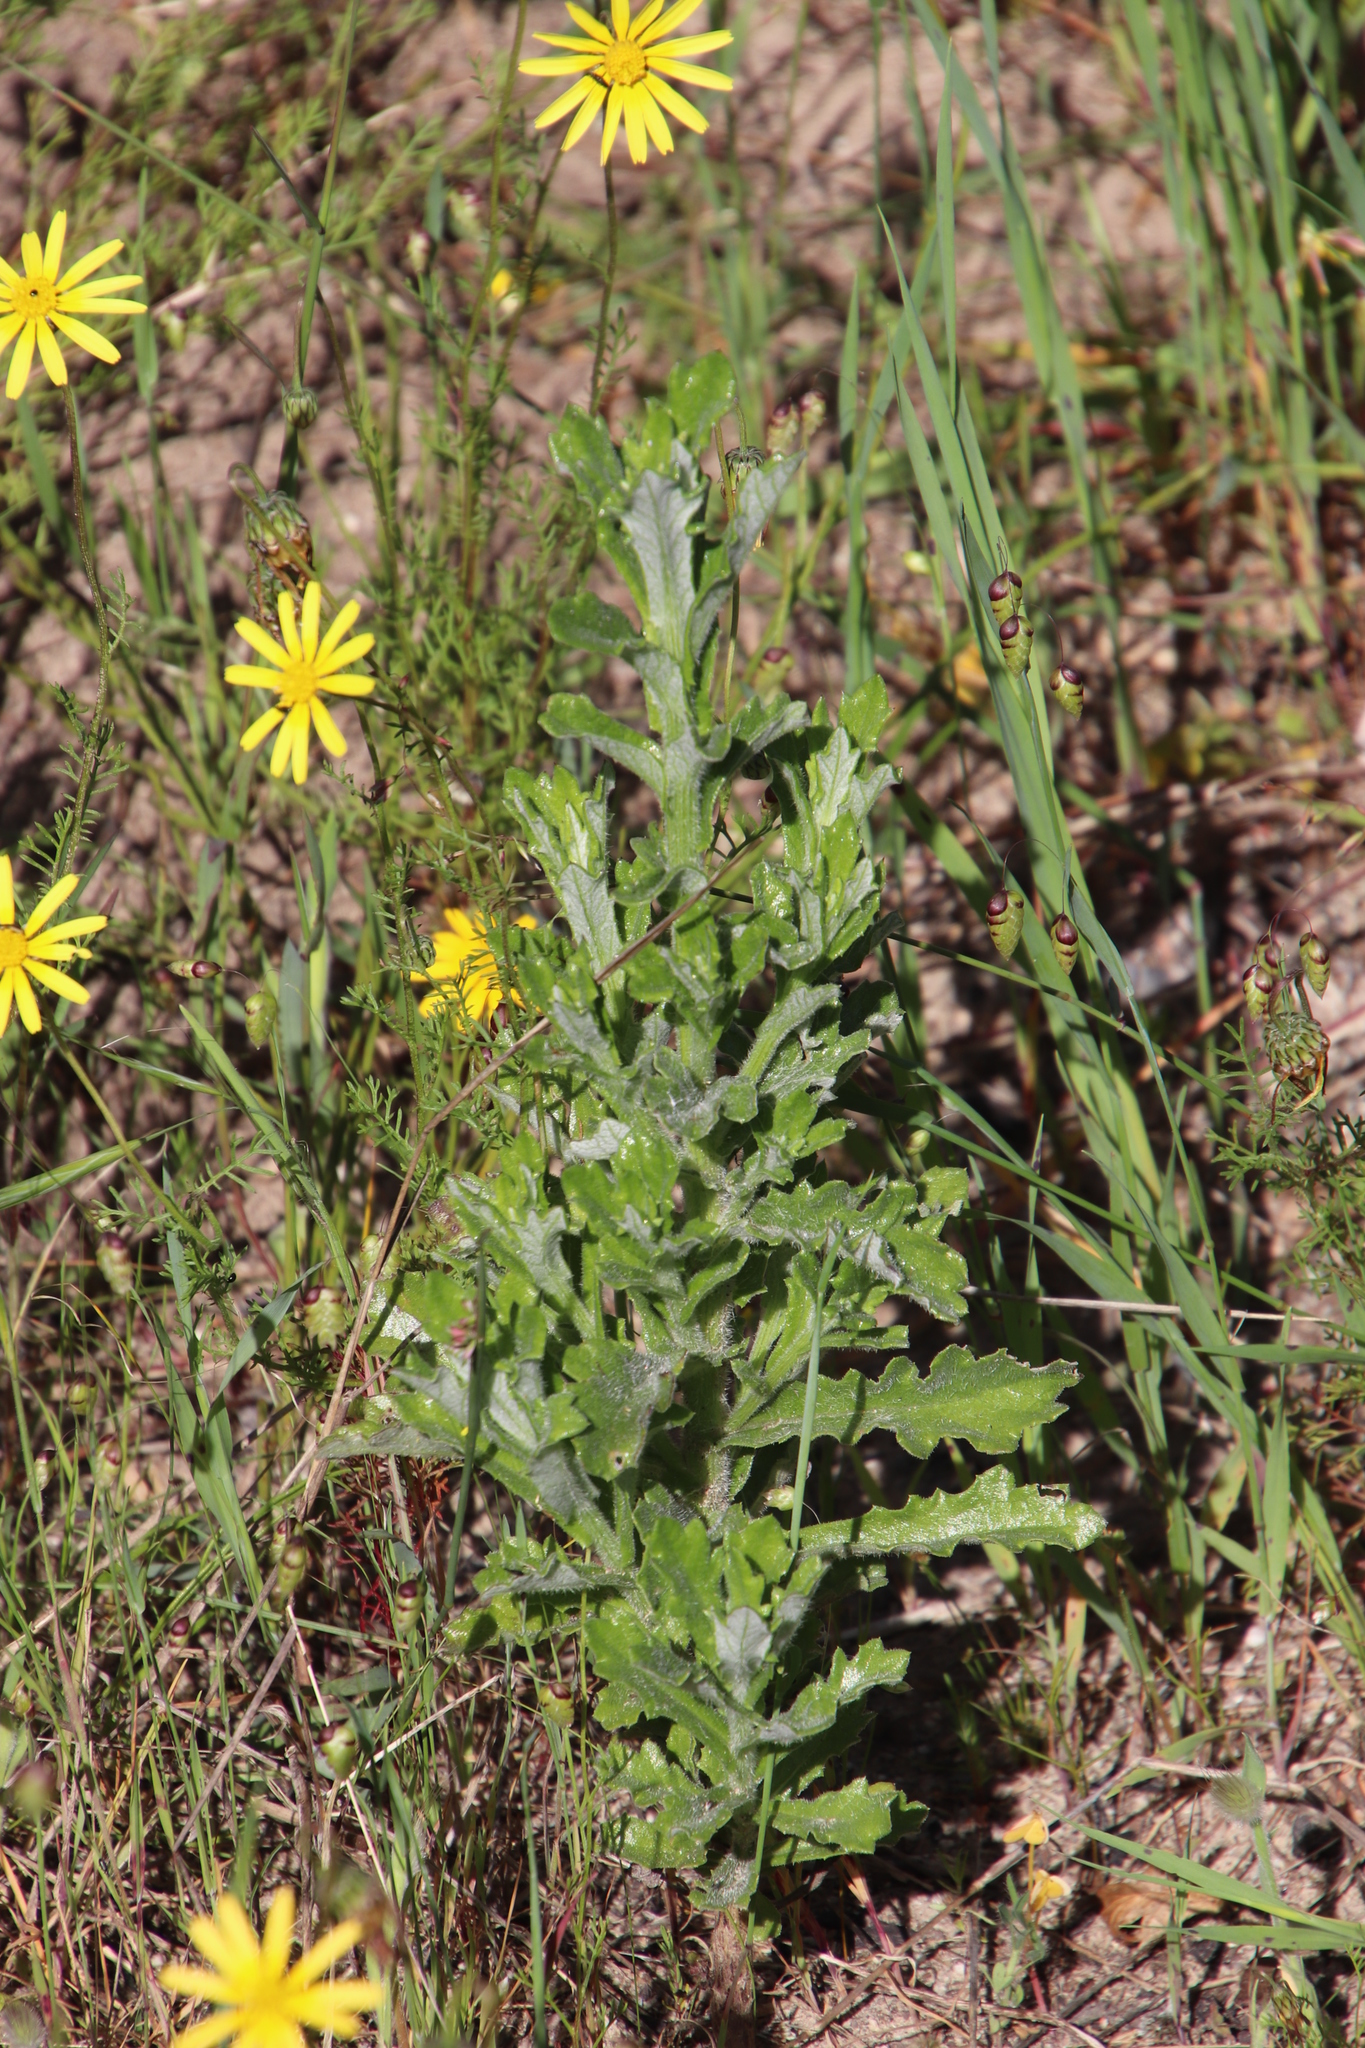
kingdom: Plantae
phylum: Tracheophyta
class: Magnoliopsida
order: Asterales
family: Asteraceae
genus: Senecio
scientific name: Senecio pubigerus
